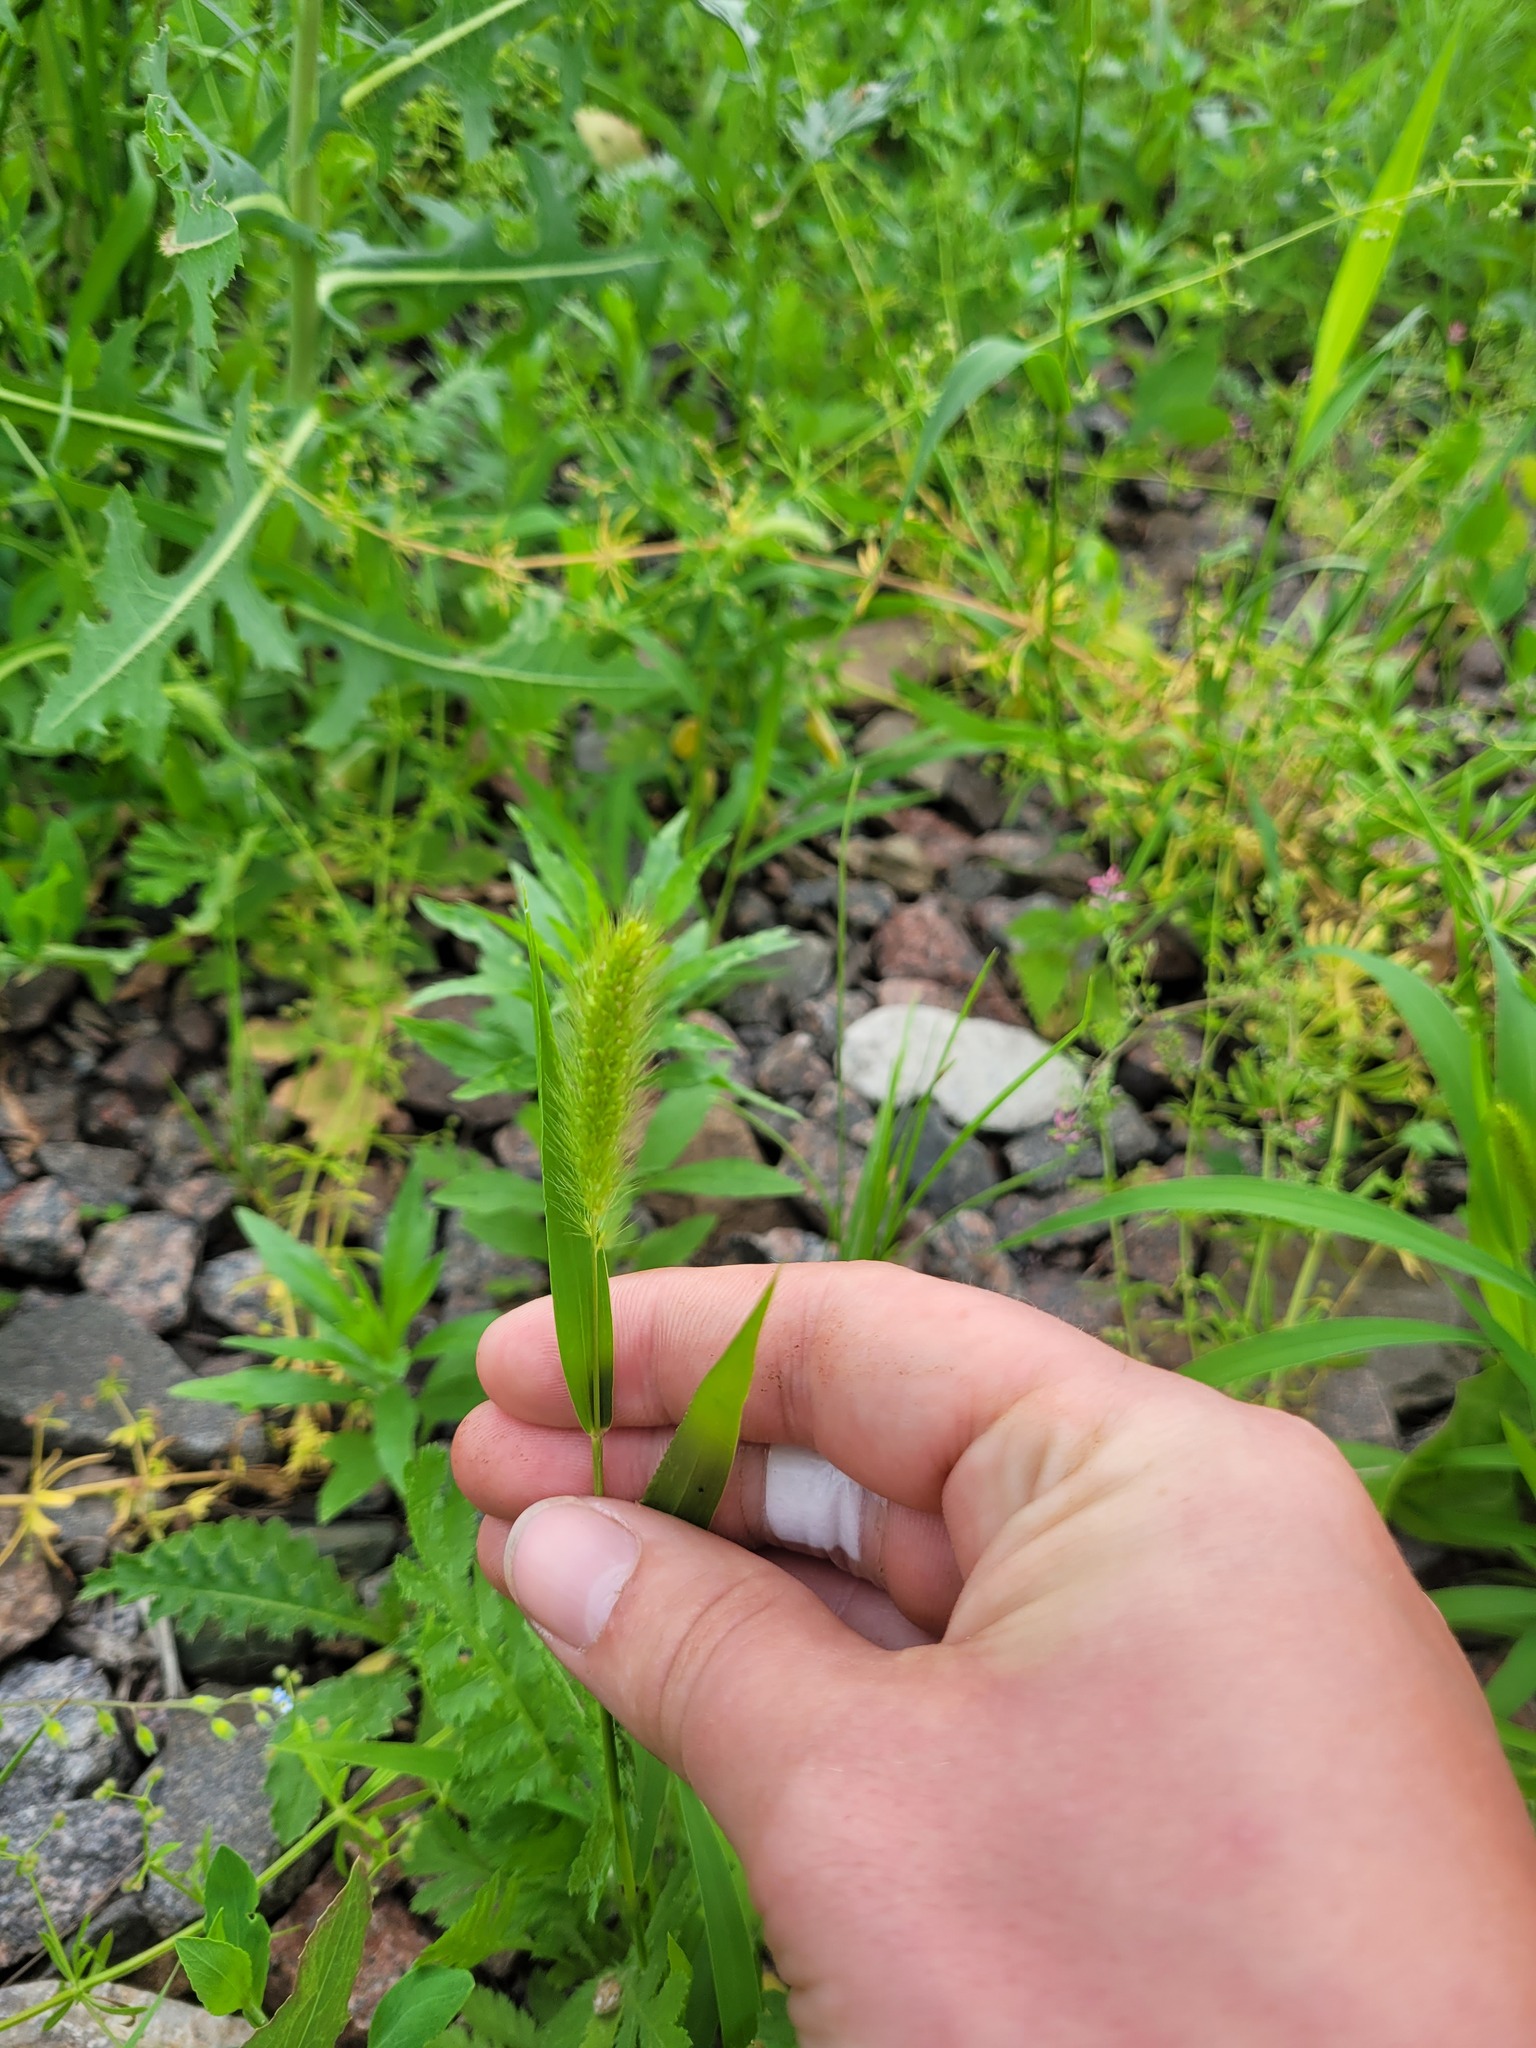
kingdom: Plantae
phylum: Tracheophyta
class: Liliopsida
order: Poales
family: Poaceae
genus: Setaria
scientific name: Setaria viridis
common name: Green bristlegrass
